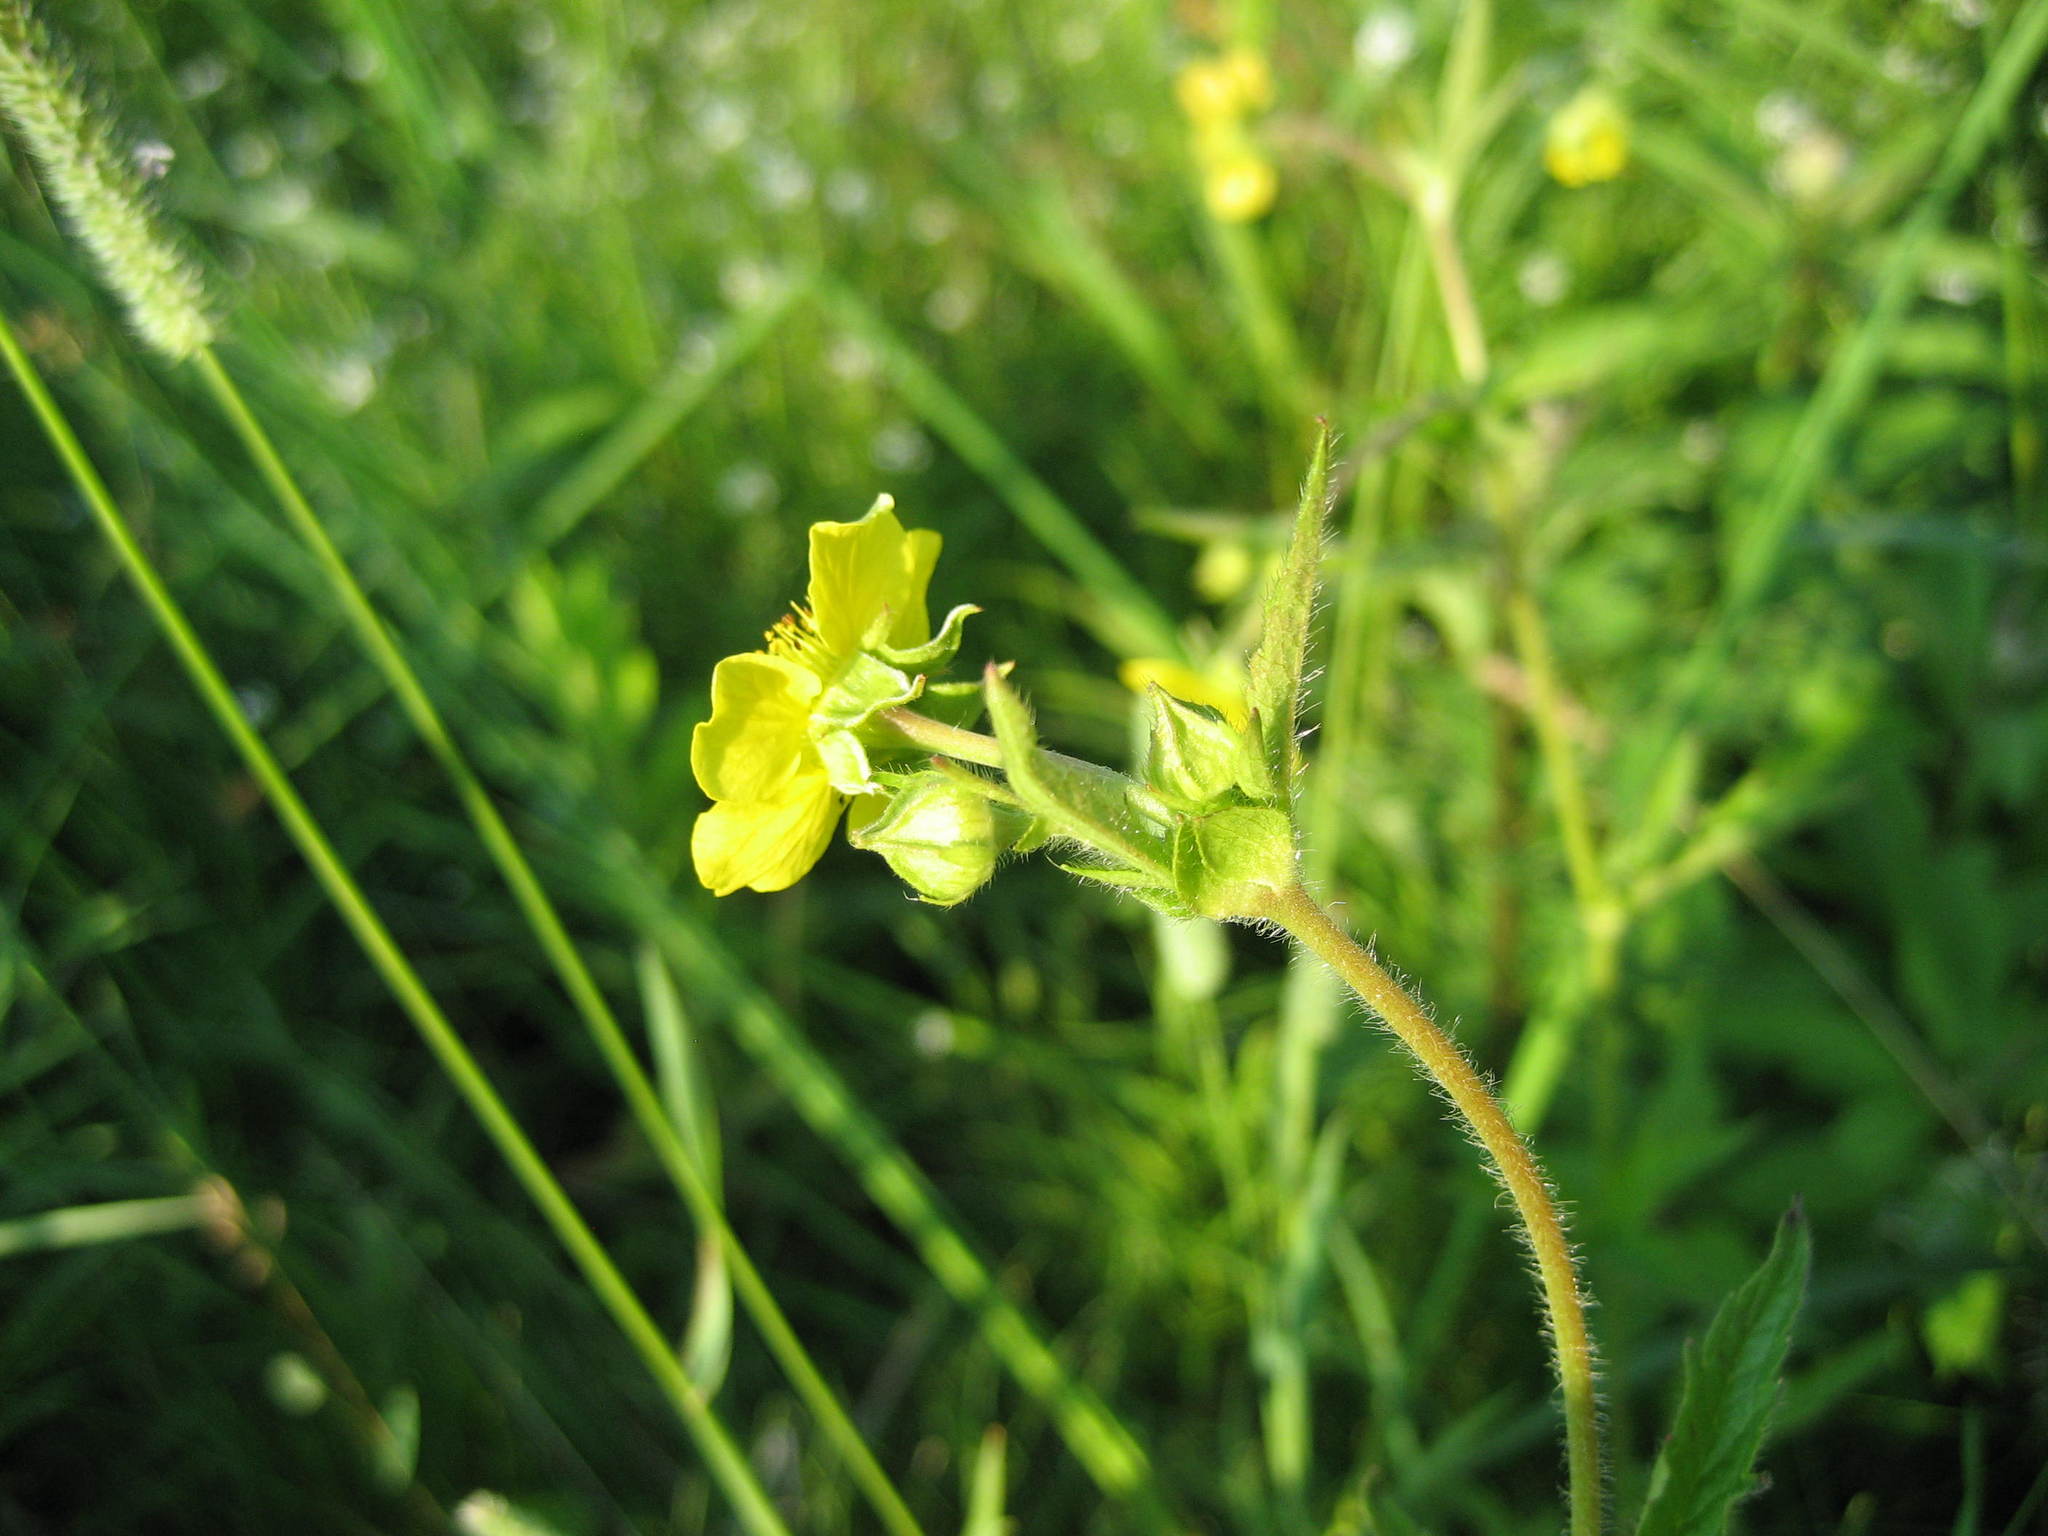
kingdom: Plantae
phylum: Tracheophyta
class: Magnoliopsida
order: Rosales
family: Rosaceae
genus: Geum
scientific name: Geum aleppicum
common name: Yellow avens
